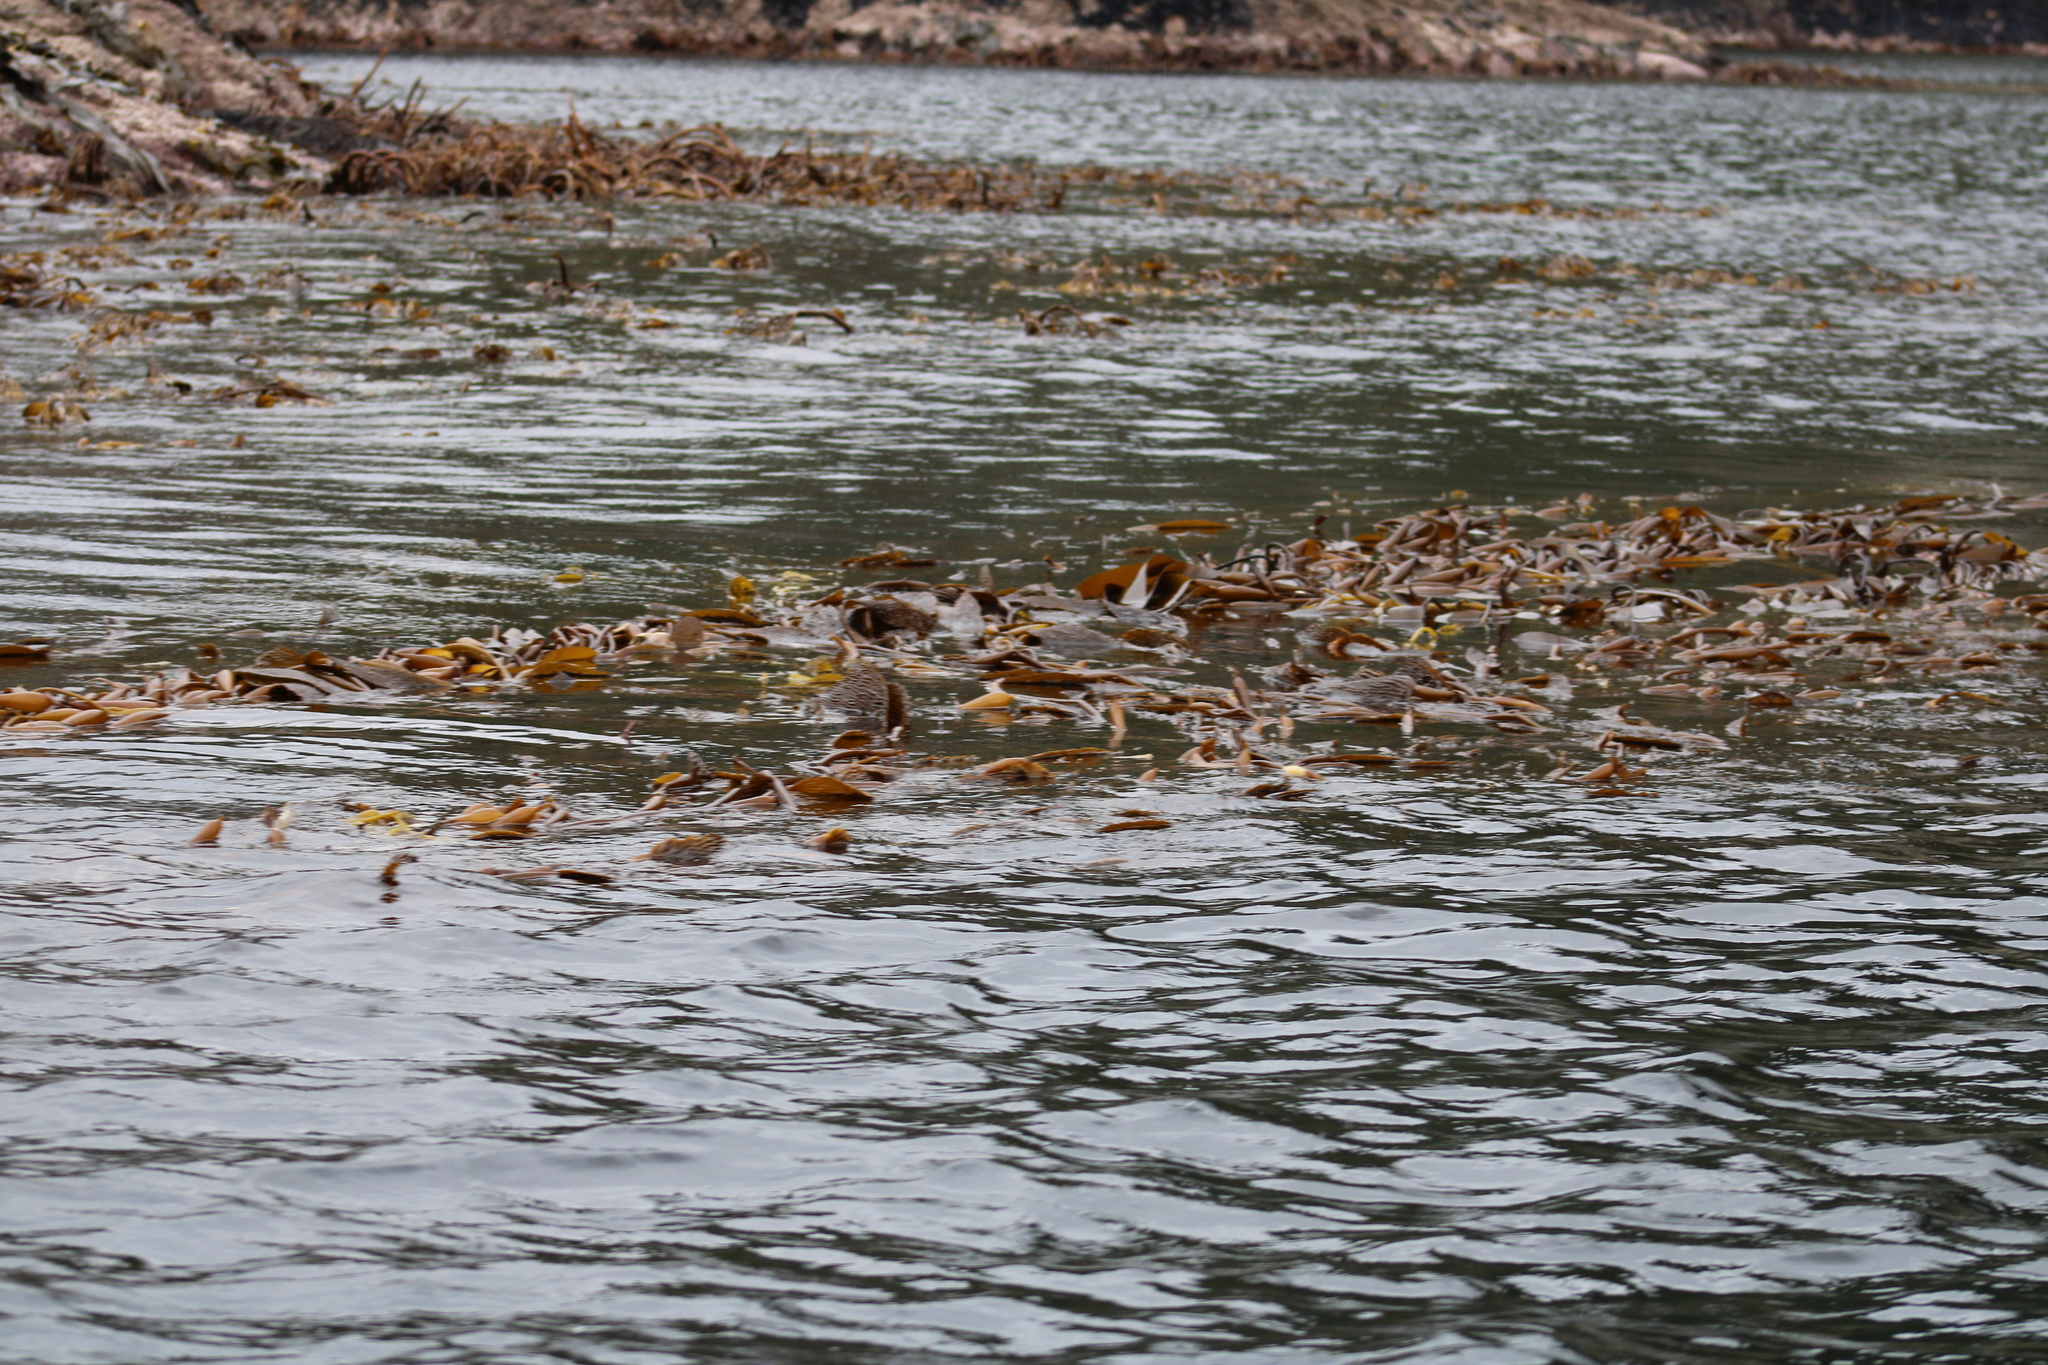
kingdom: Chromista
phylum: Ochrophyta
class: Phaeophyceae
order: Laminariales
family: Laminariaceae
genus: Macrocystis
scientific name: Macrocystis pyrifera
